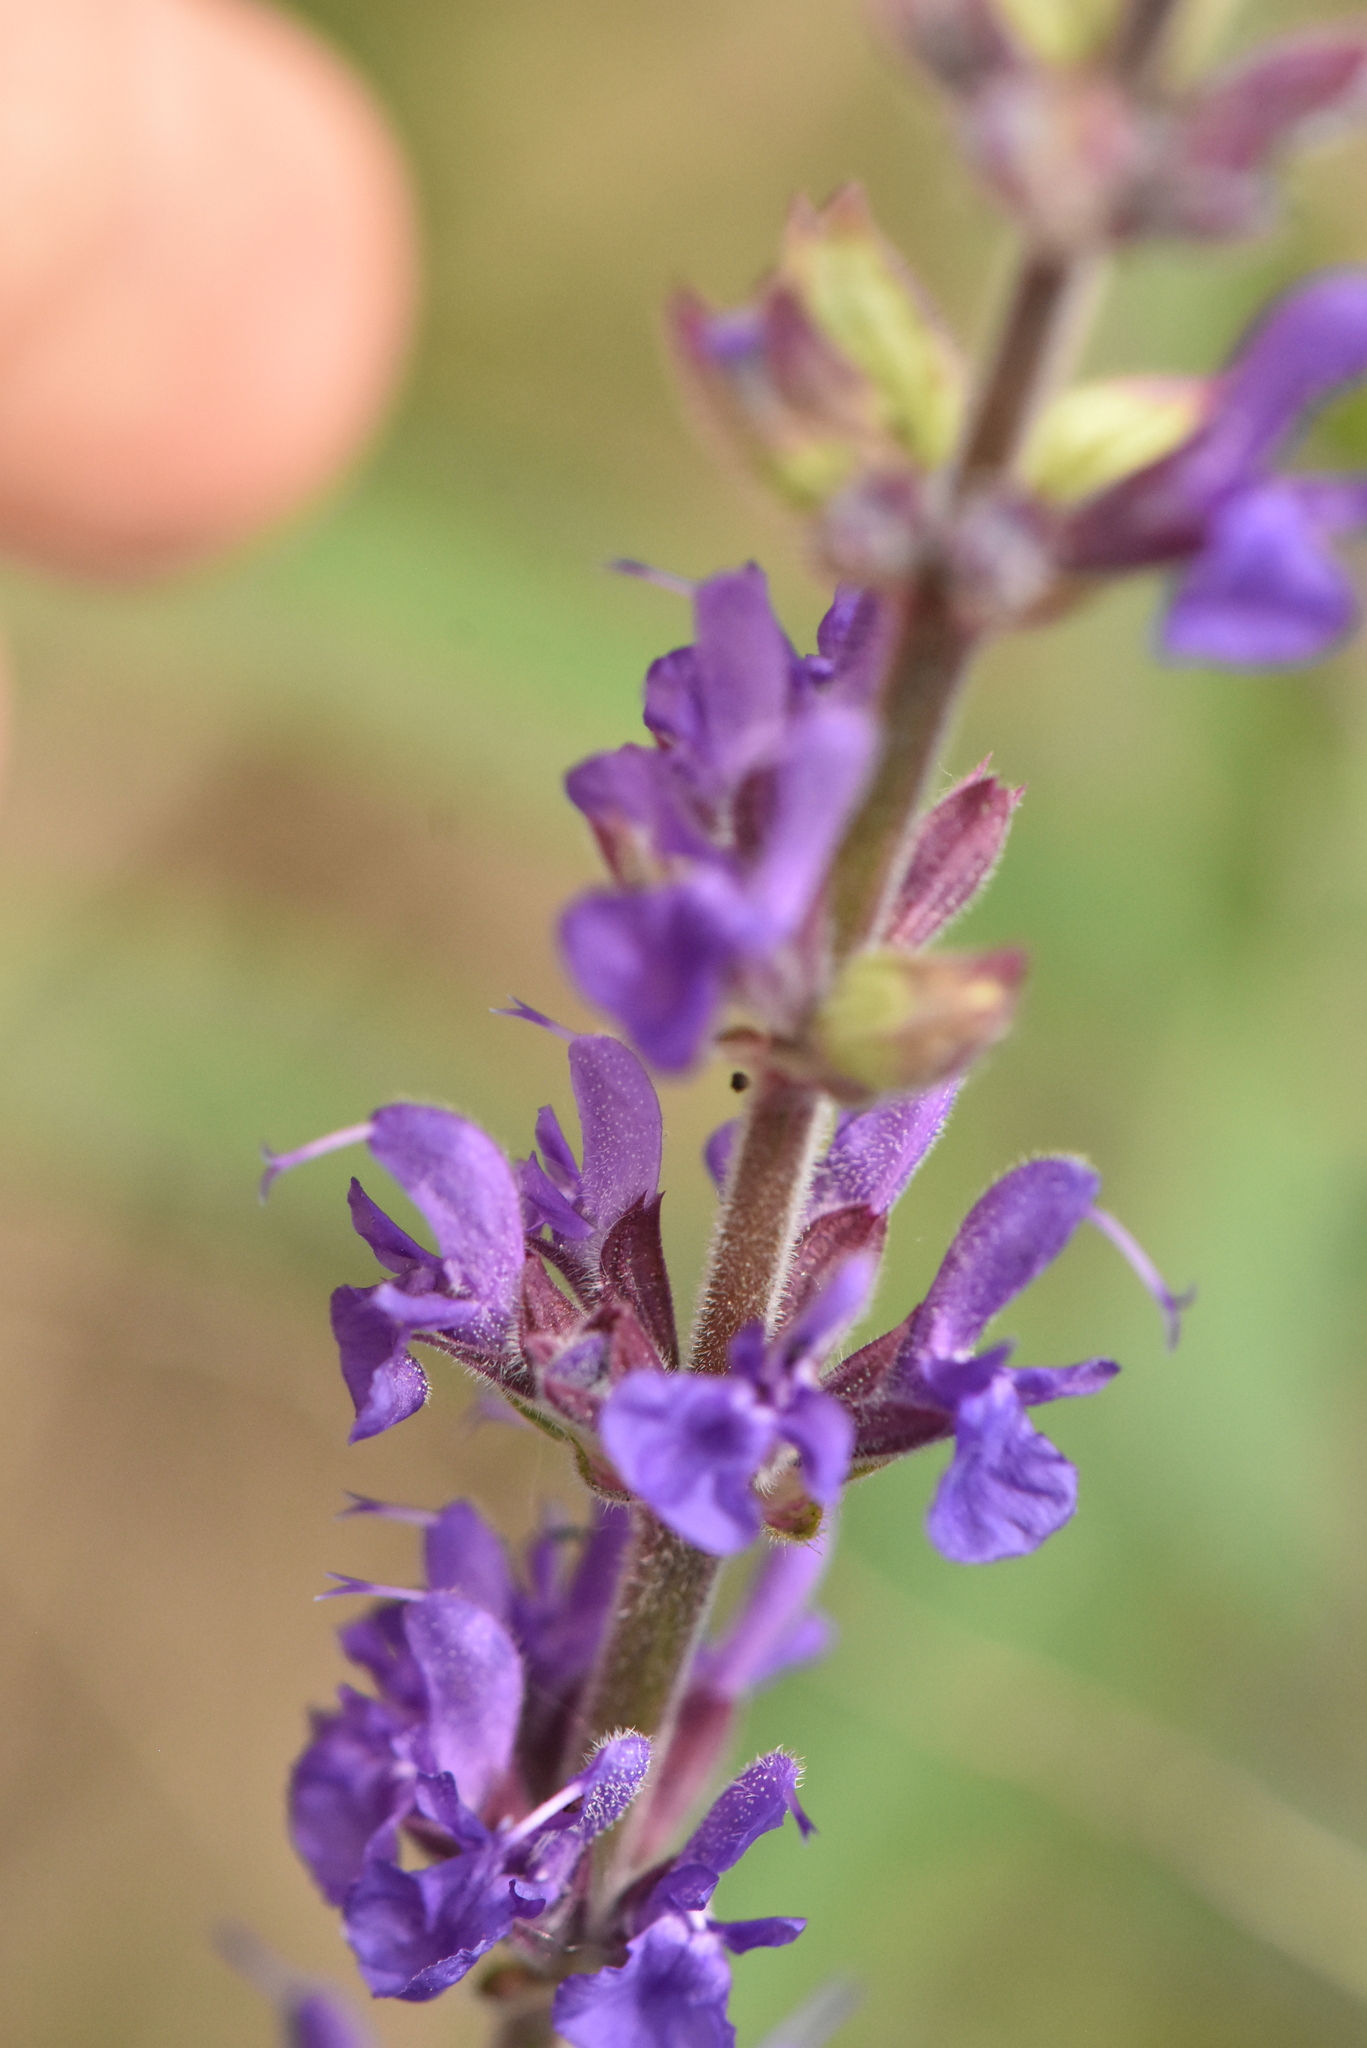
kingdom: Plantae
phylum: Tracheophyta
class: Magnoliopsida
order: Lamiales
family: Lamiaceae
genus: Salvia
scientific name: Salvia nemorosa
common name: Balkan clary
